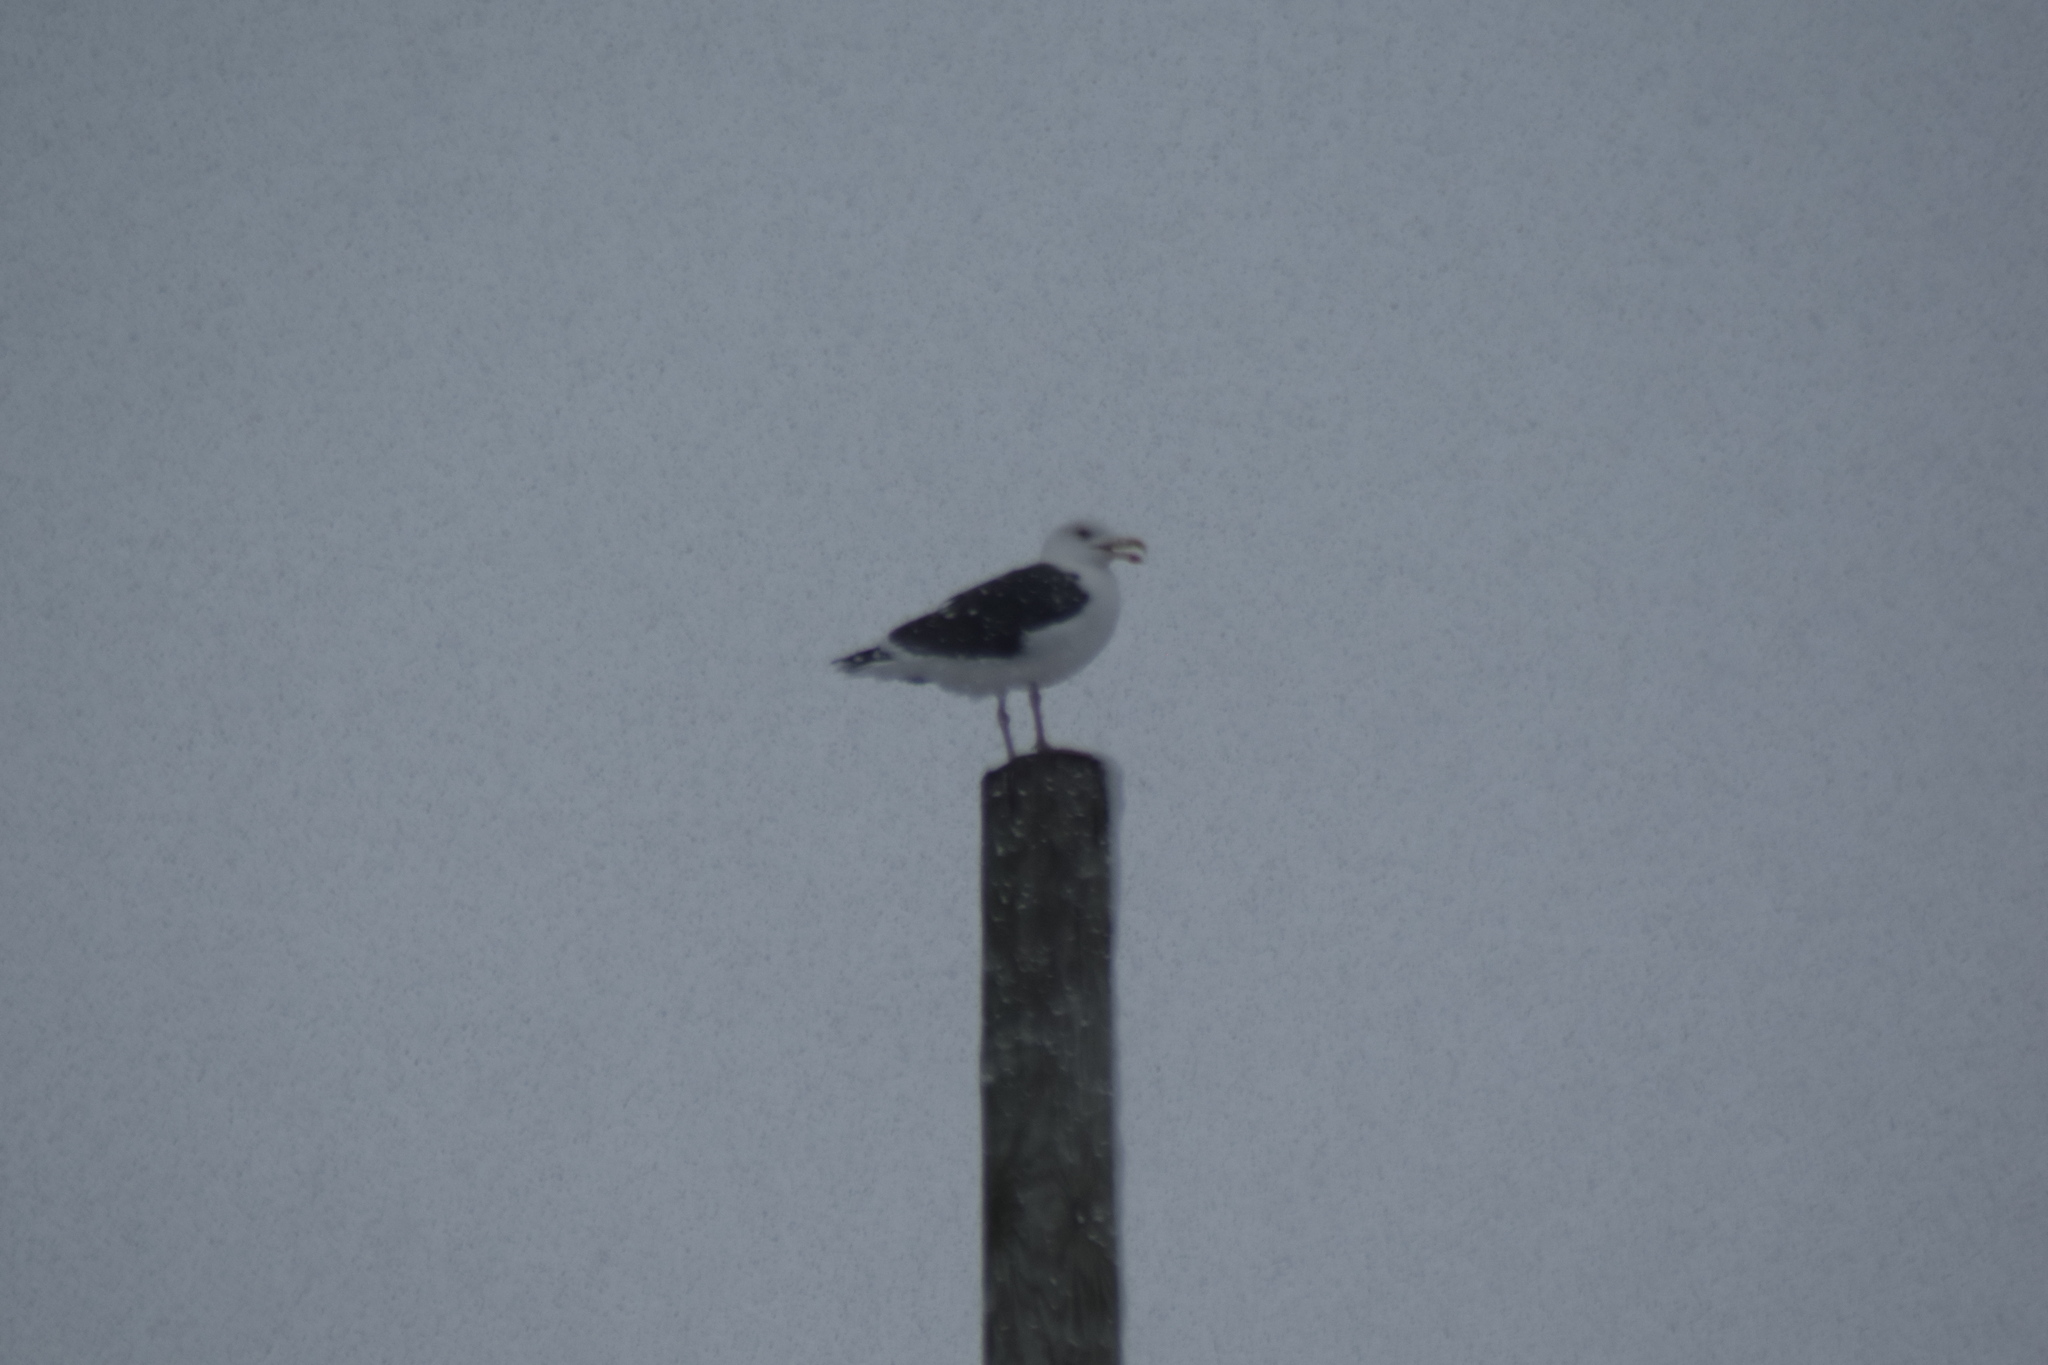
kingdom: Animalia
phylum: Chordata
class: Aves
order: Charadriiformes
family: Laridae
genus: Larus
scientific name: Larus marinus
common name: Great black-backed gull
